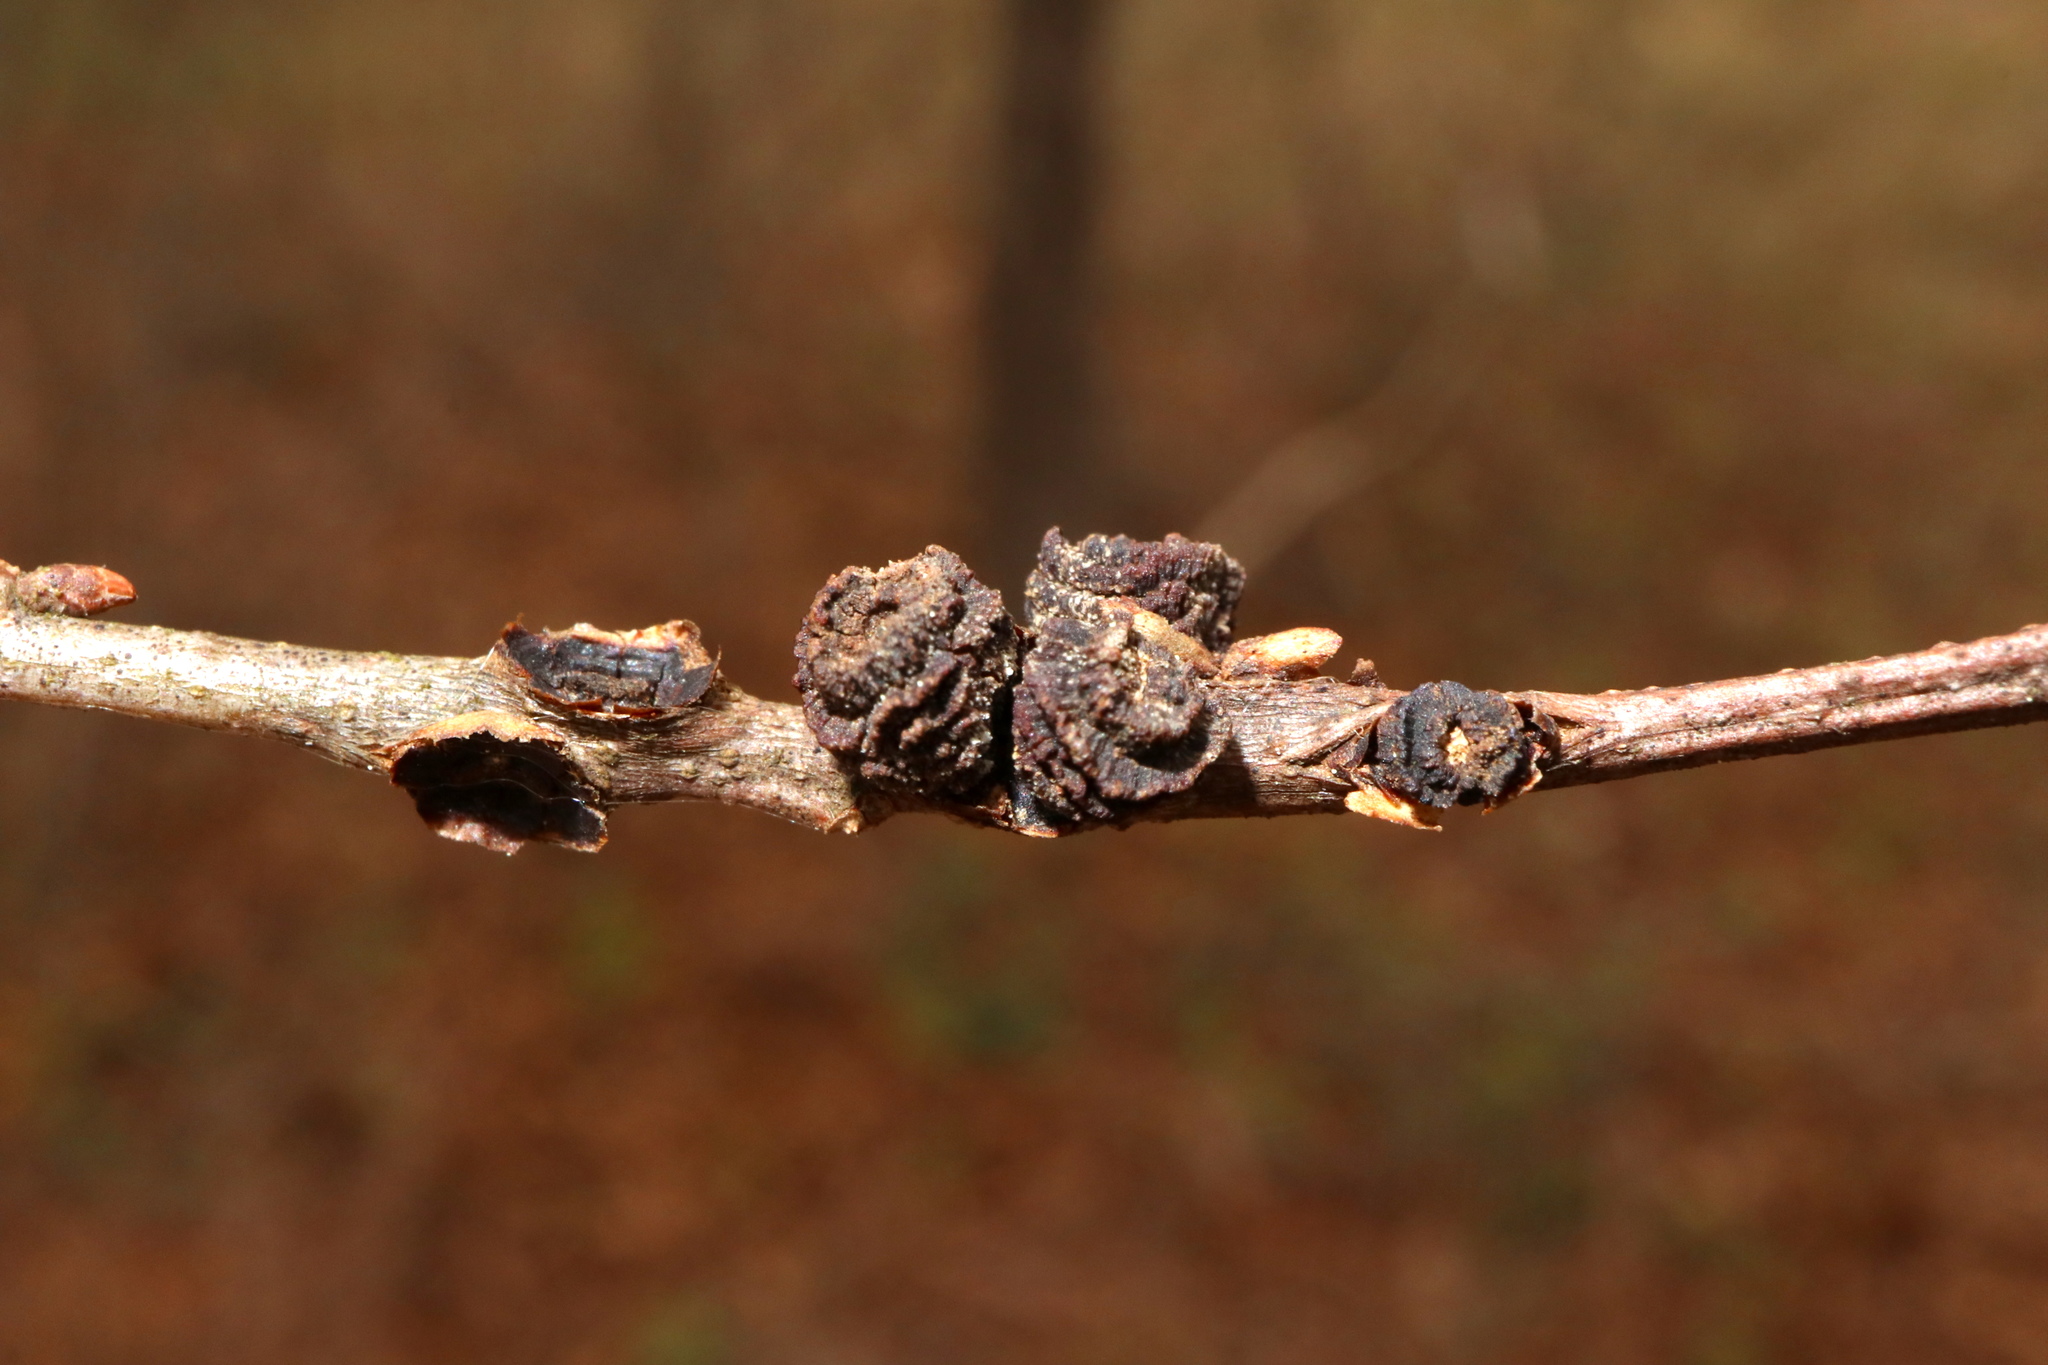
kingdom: Animalia
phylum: Arthropoda
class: Insecta
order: Hymenoptera
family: Cynipidae
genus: Kokkocynips
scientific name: Kokkocynips difficilis
